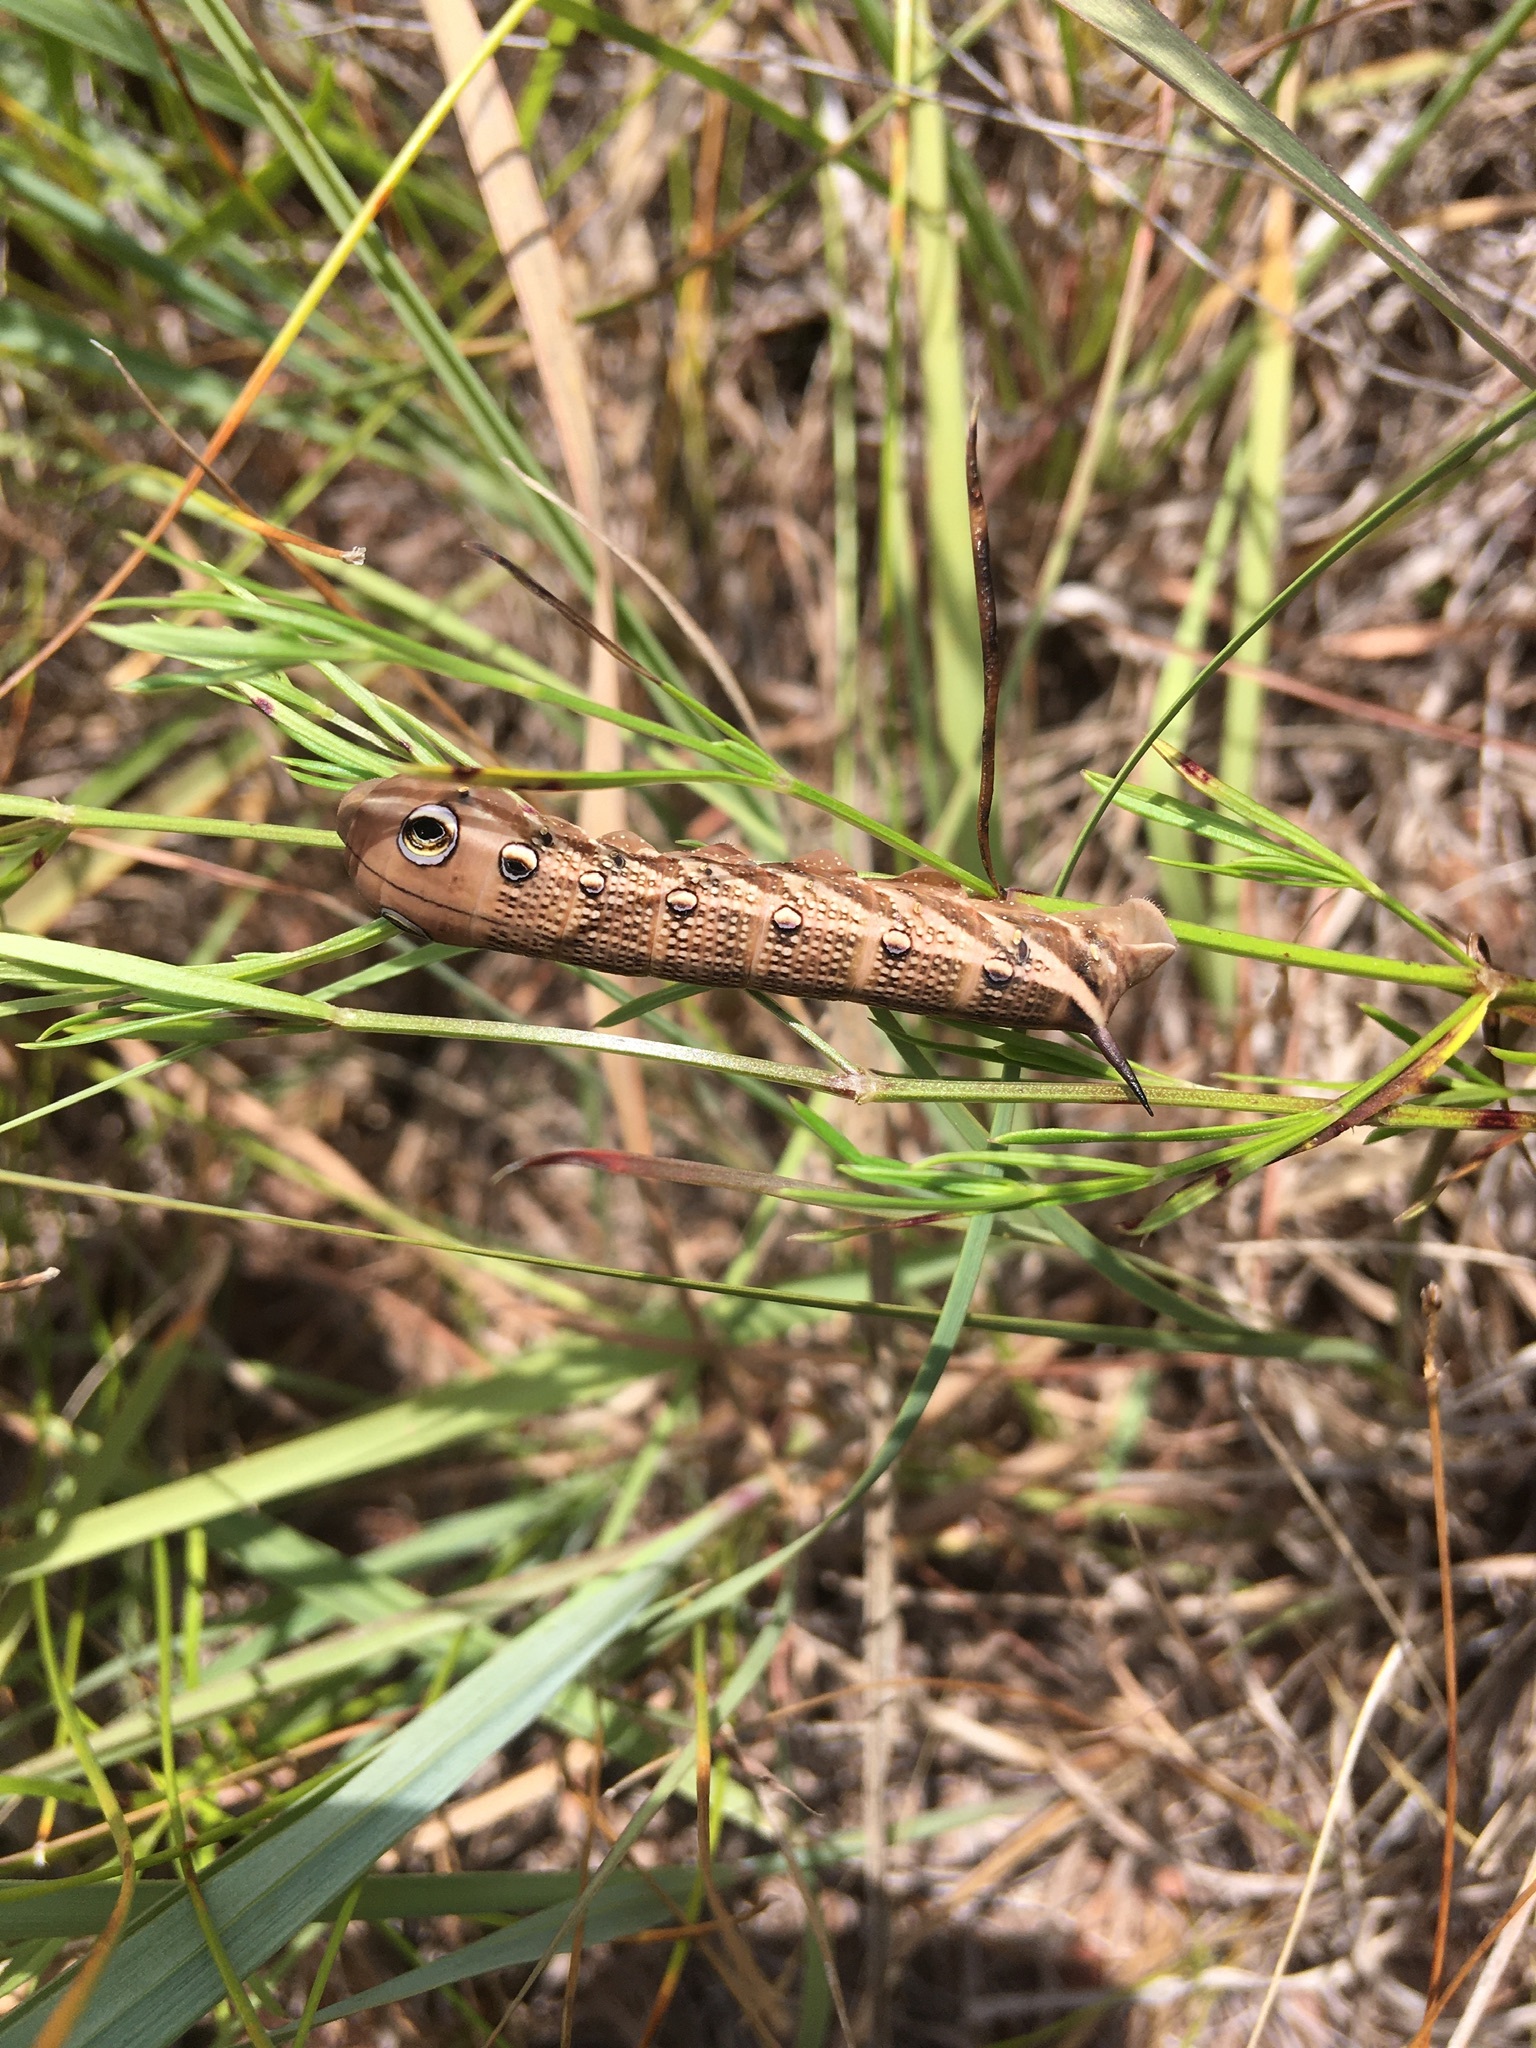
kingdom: Animalia
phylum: Arthropoda
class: Insecta
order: Lepidoptera
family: Sphingidae
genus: Xylophanes
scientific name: Xylophanes tersa
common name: Tersa sphinx
